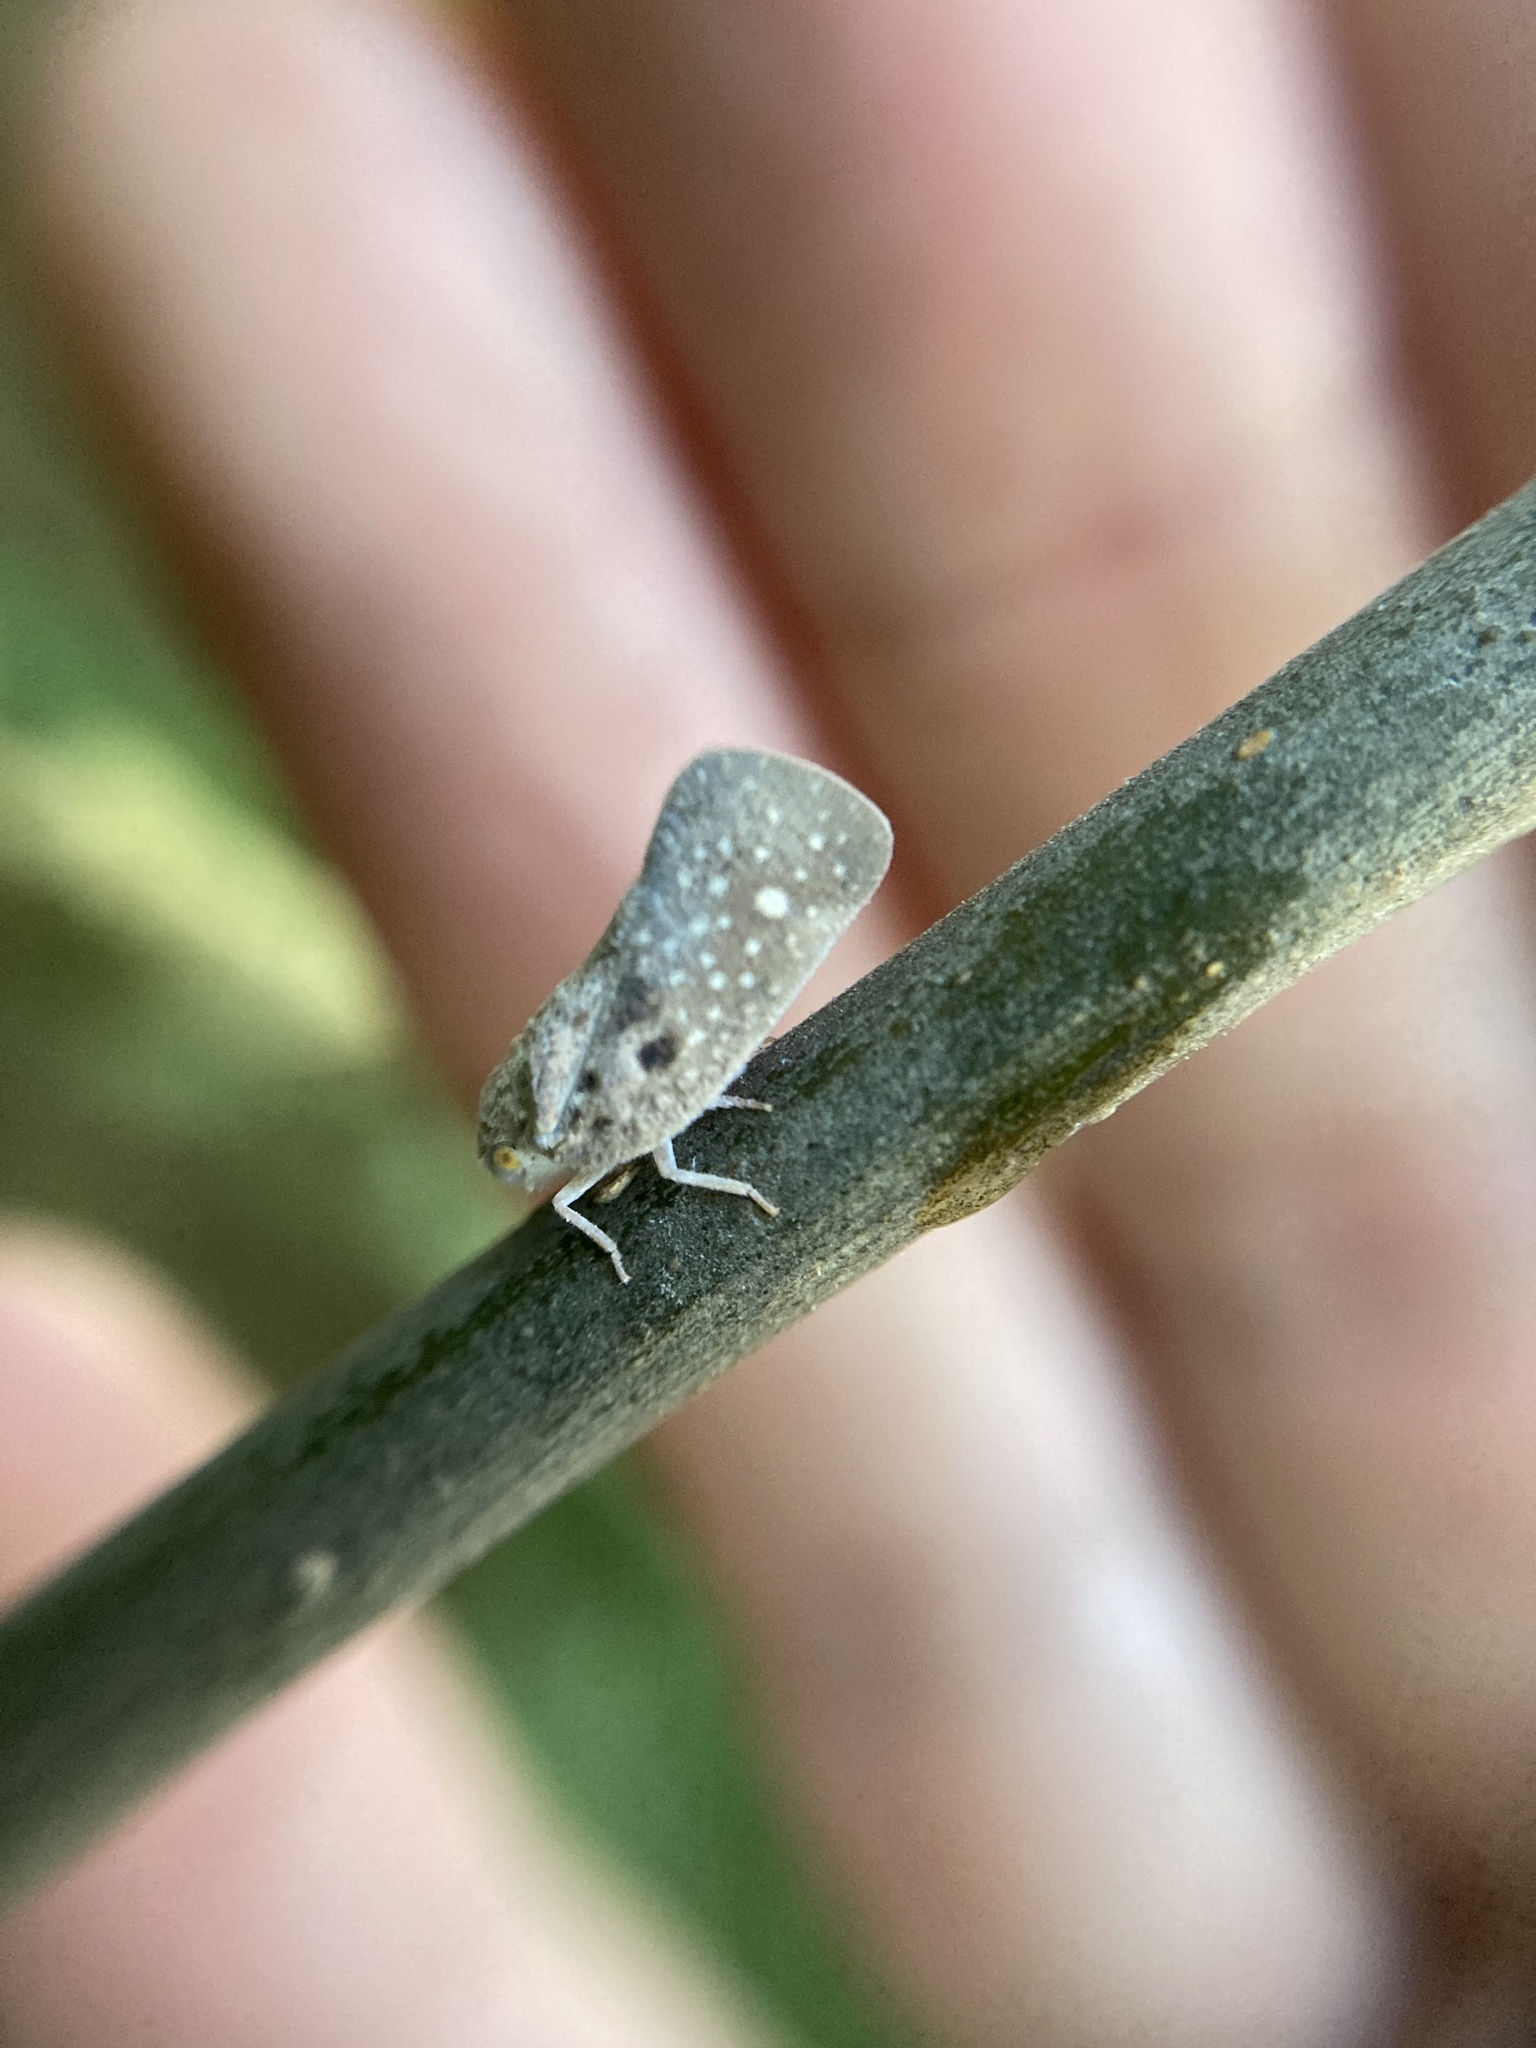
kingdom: Animalia
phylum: Arthropoda
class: Insecta
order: Hemiptera
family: Flatidae
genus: Metcalfa
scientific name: Metcalfa pruinosa
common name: Citrus flatid planthopper
